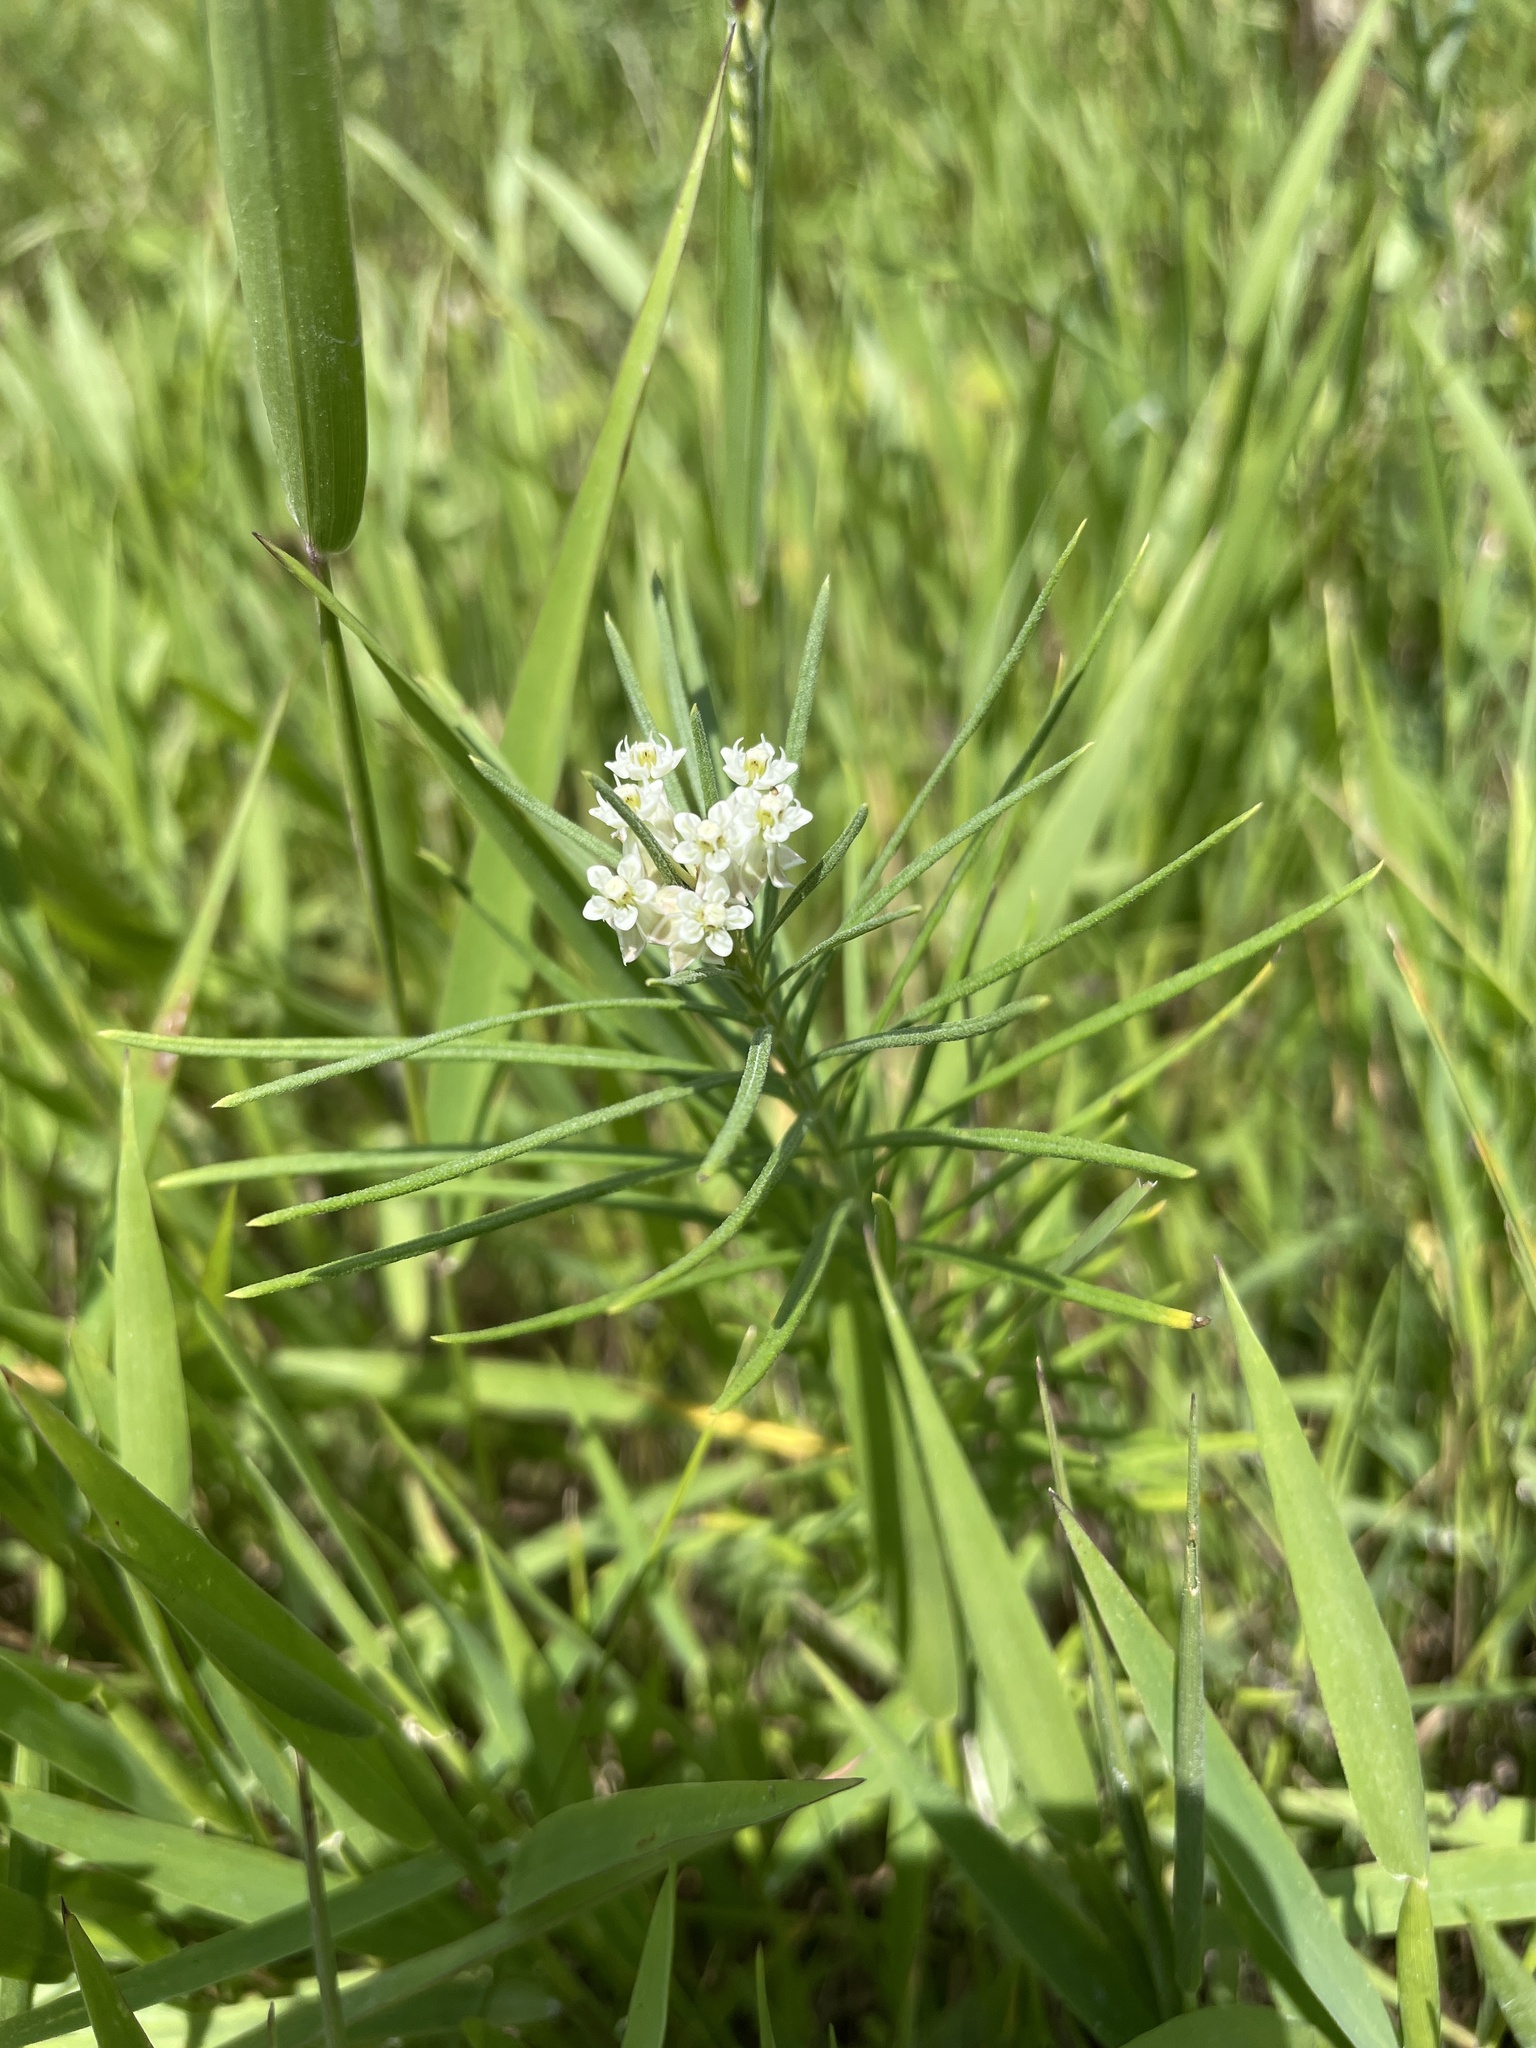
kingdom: Plantae
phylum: Tracheophyta
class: Magnoliopsida
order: Gentianales
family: Apocynaceae
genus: Asclepias
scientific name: Asclepias verticillata
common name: Eastern whorled milkweed
